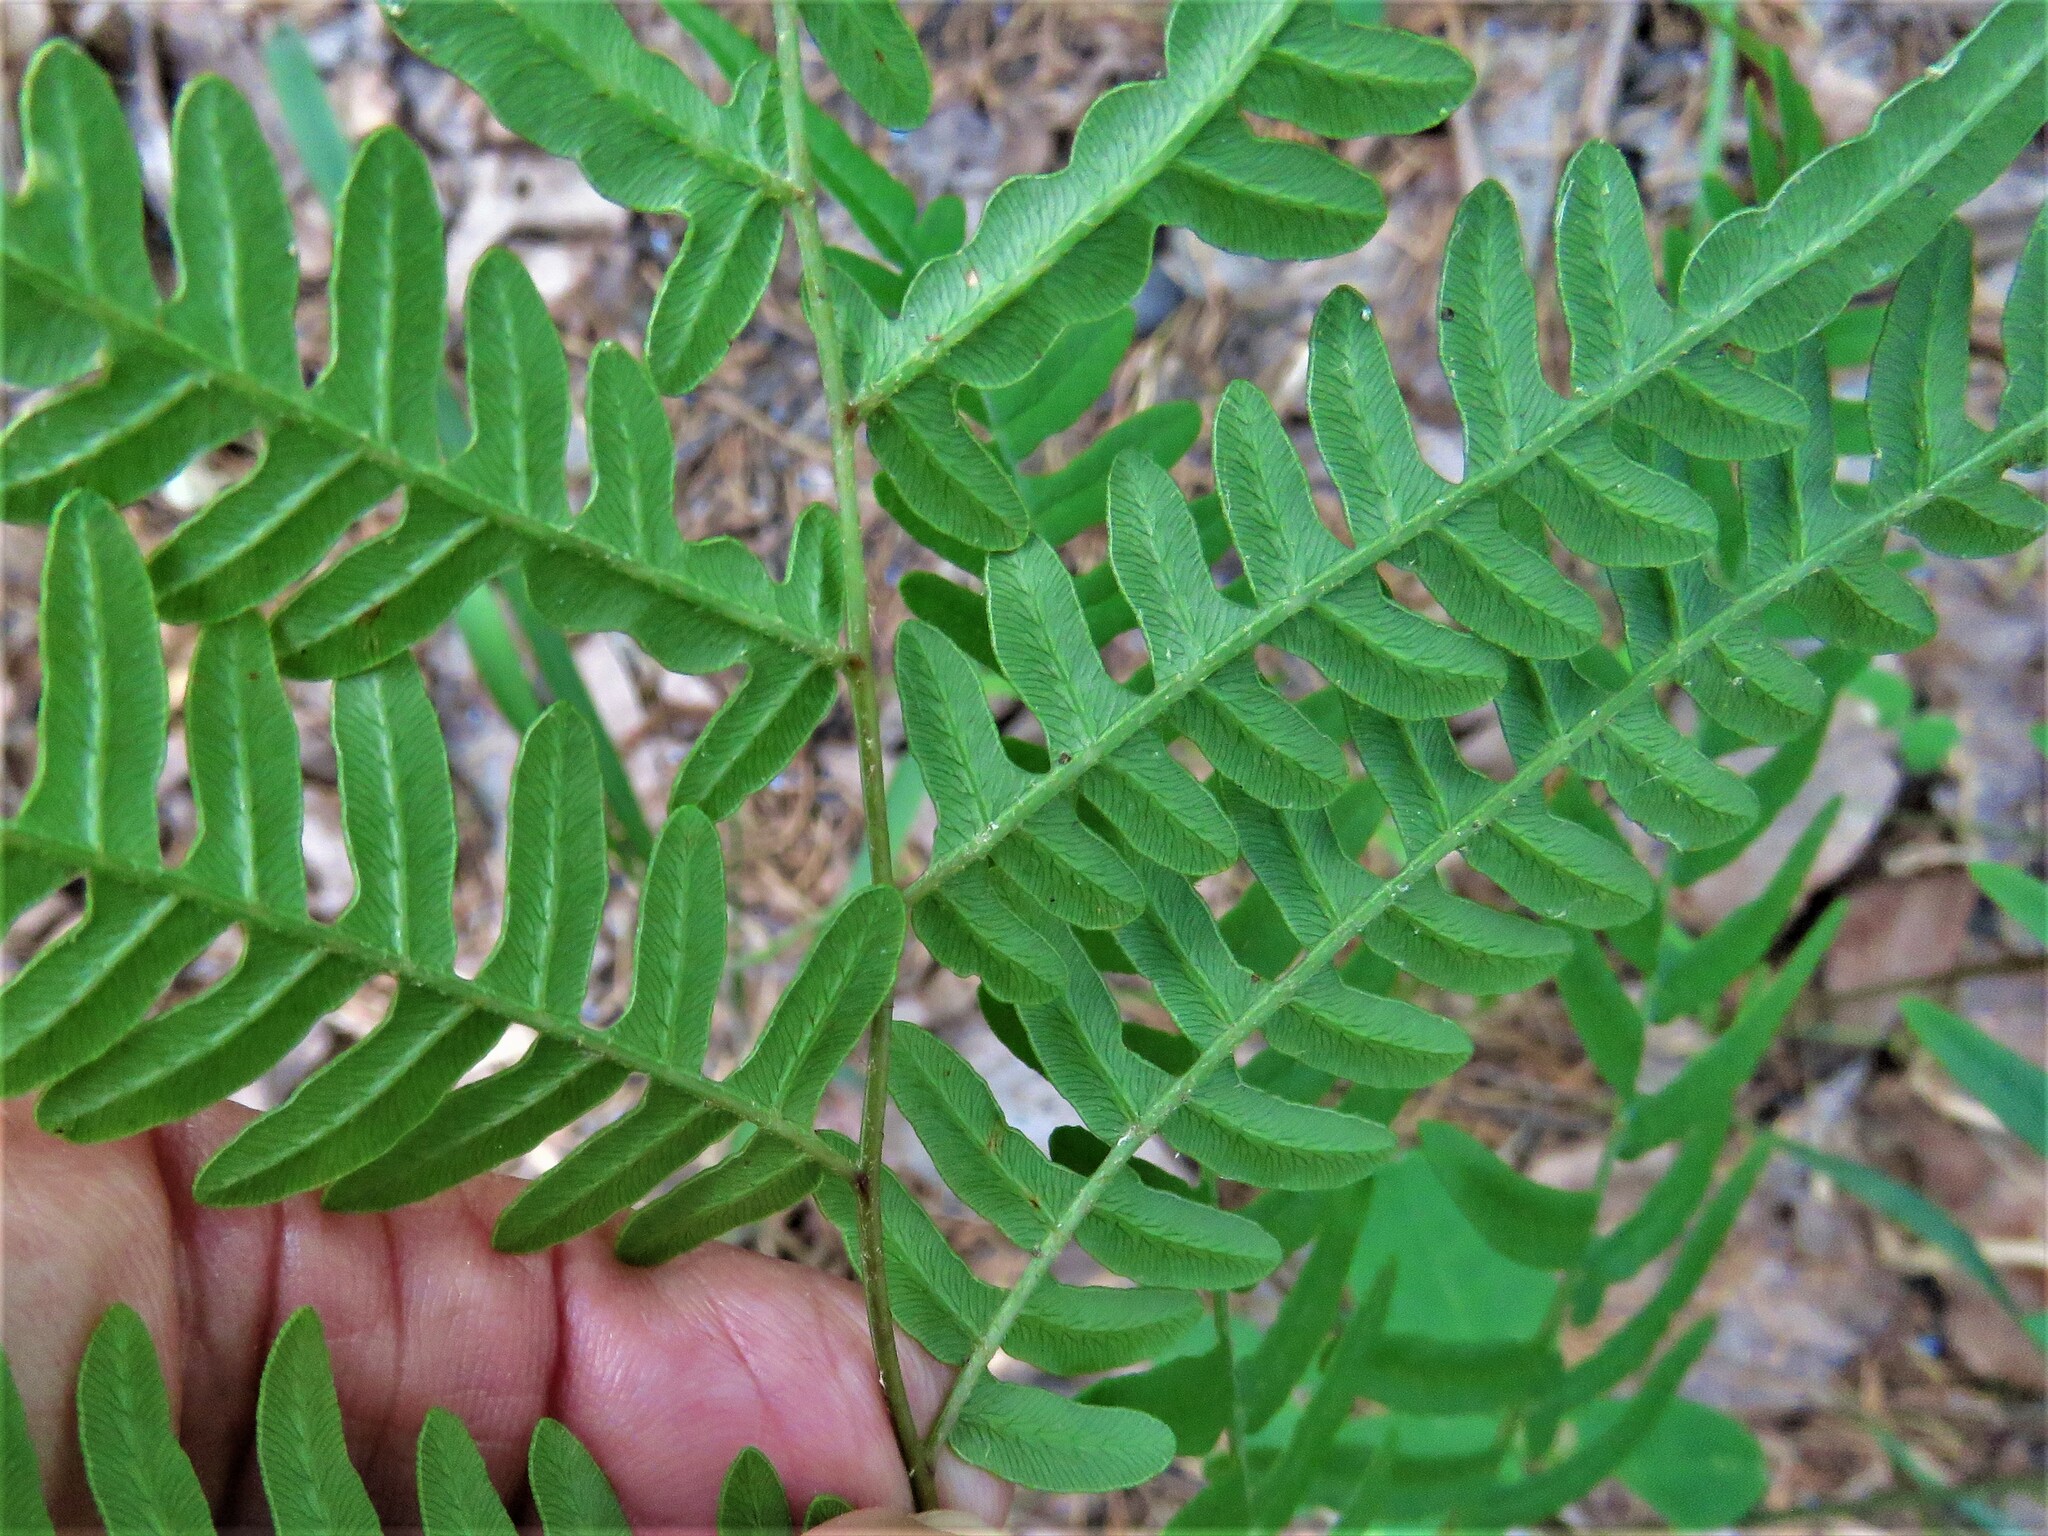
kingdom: Plantae
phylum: Tracheophyta
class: Polypodiopsida
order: Polypodiales
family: Dennstaedtiaceae
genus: Pteridium
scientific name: Pteridium
